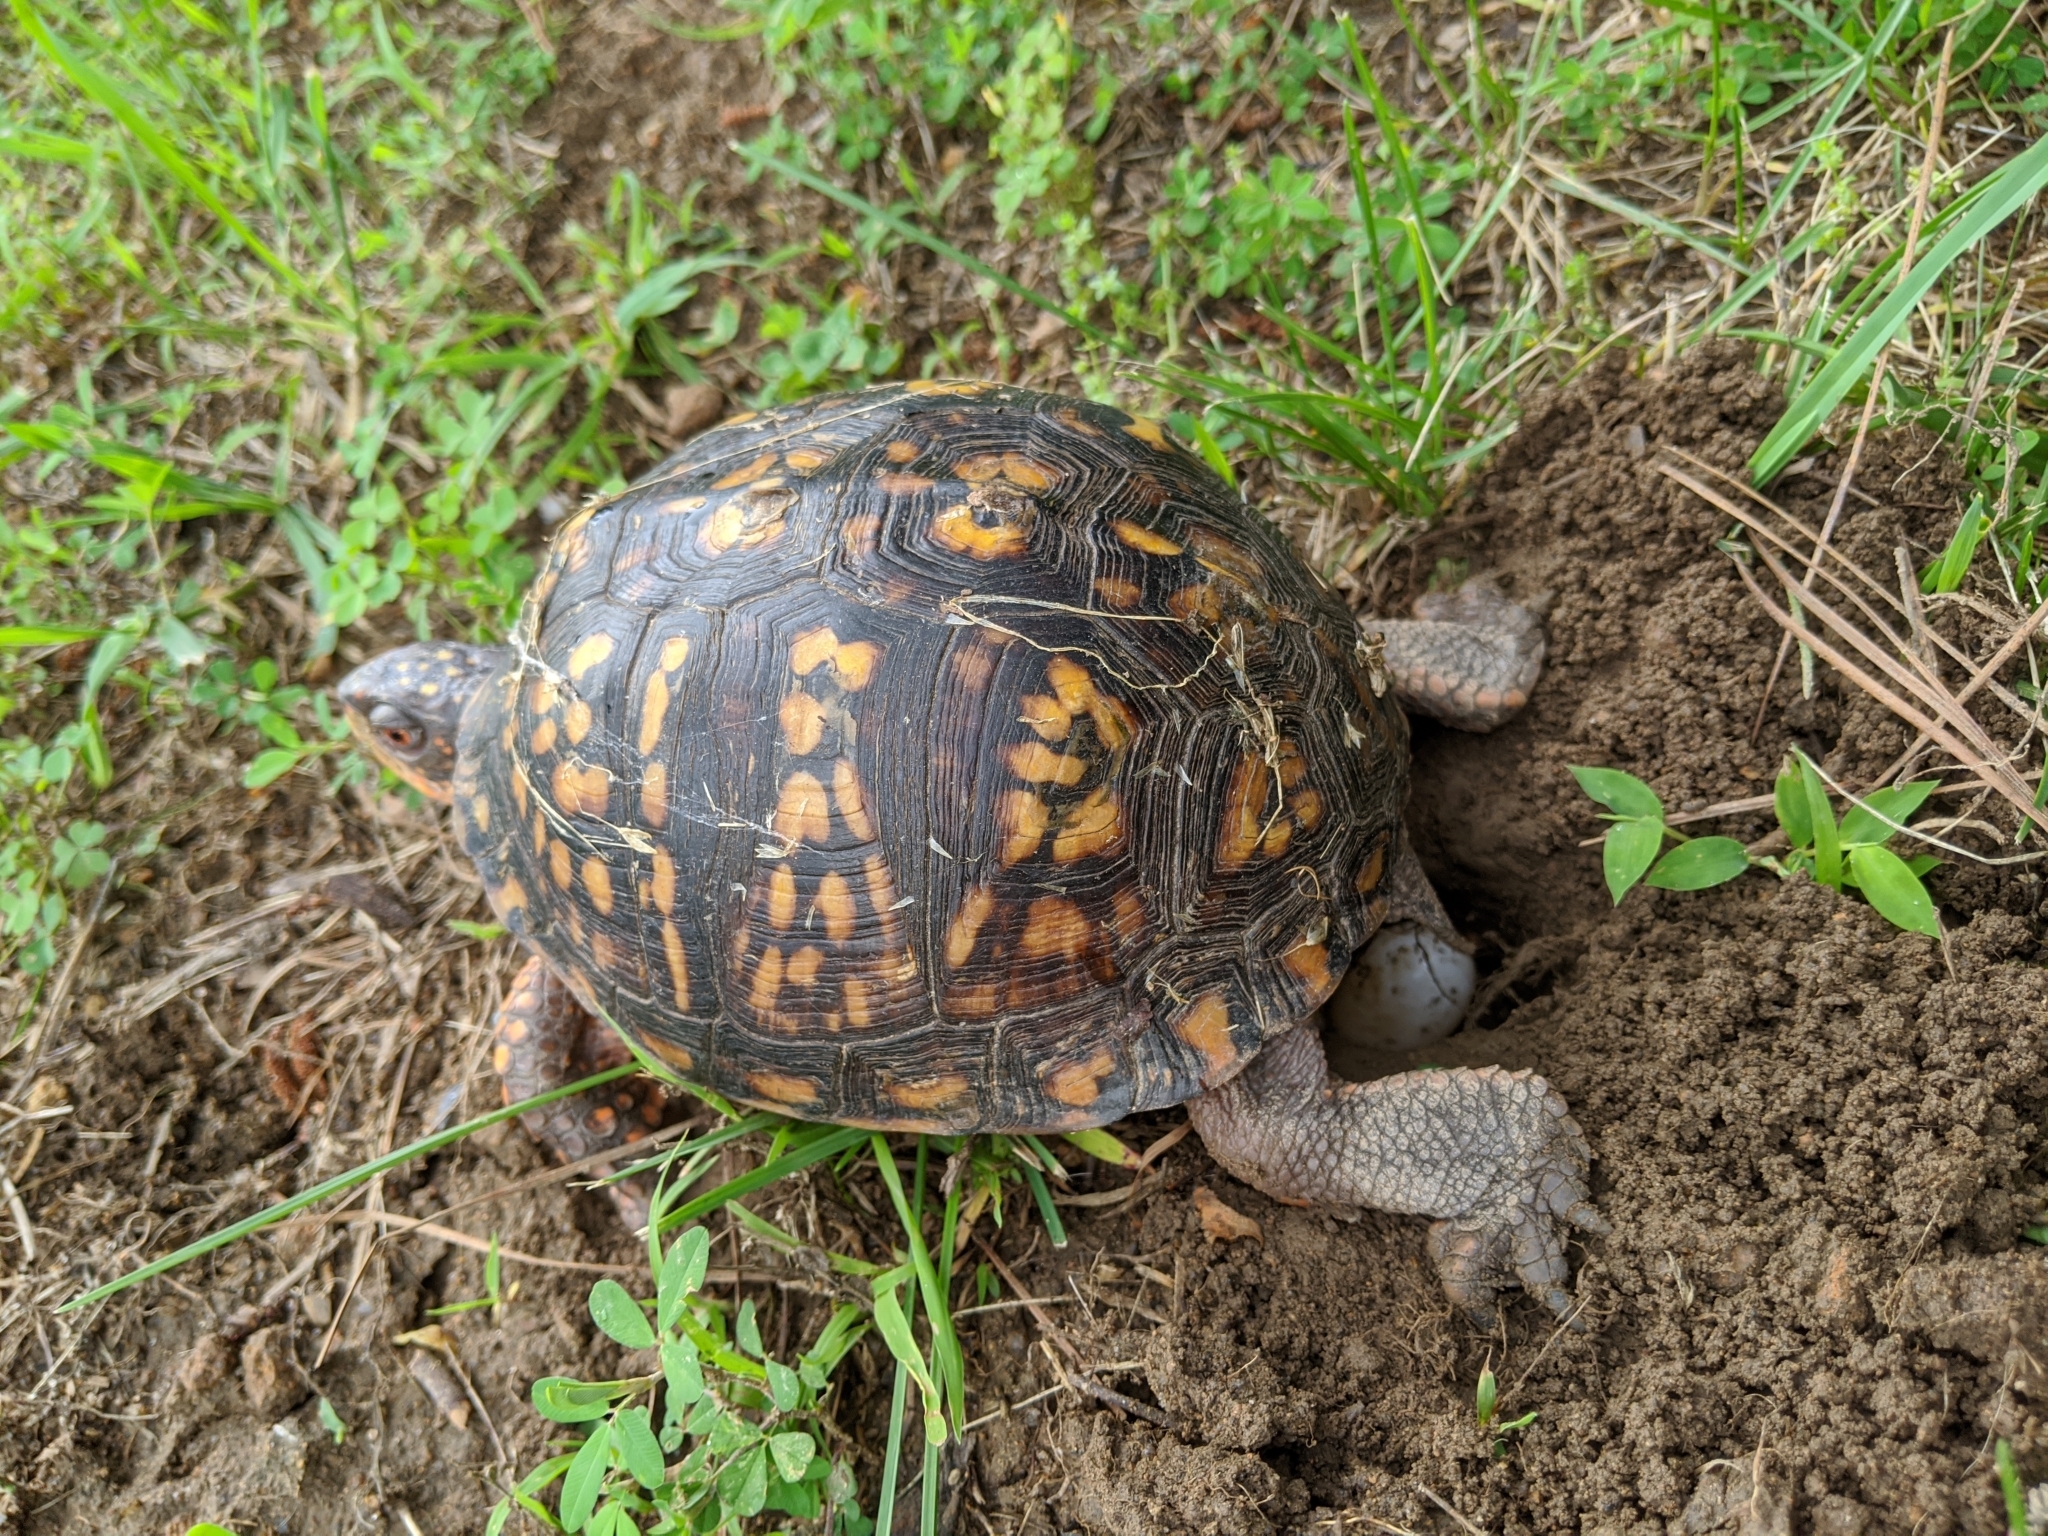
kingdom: Animalia
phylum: Chordata
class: Testudines
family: Emydidae
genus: Terrapene
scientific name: Terrapene carolina
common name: Common box turtle
